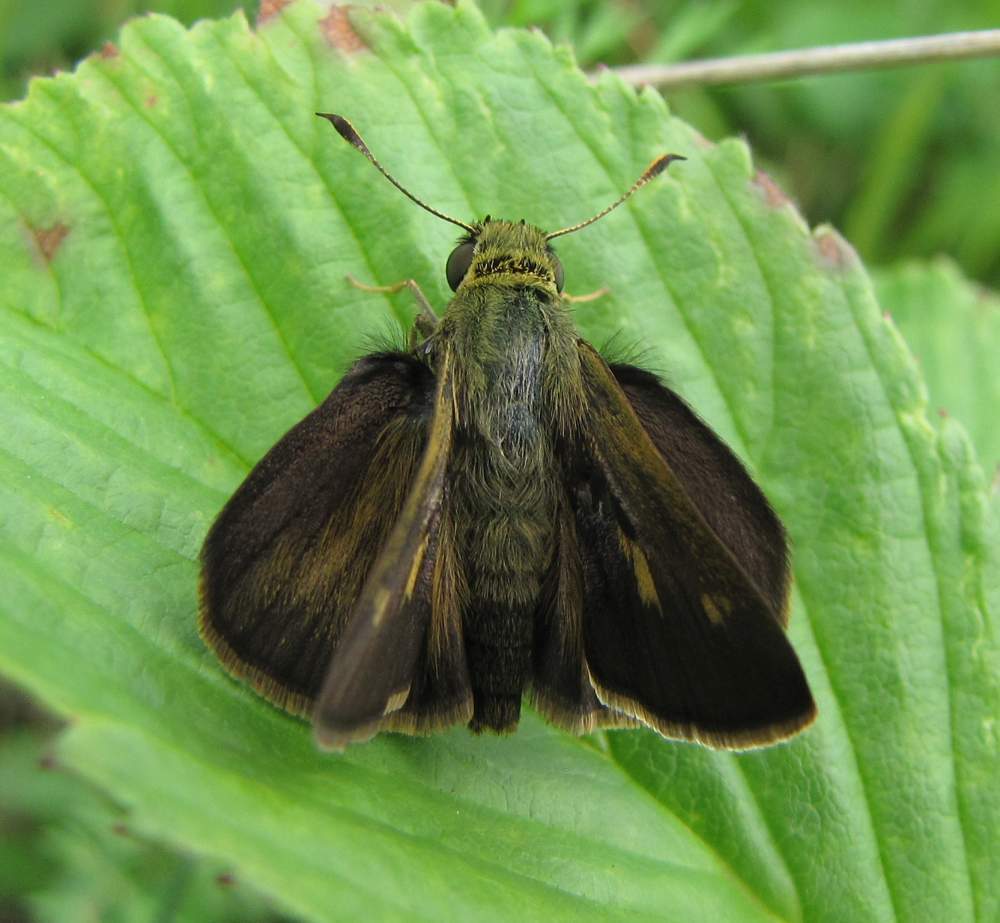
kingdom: Animalia
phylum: Arthropoda
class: Insecta
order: Lepidoptera
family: Hesperiidae
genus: Polites
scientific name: Polites egeremet
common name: Northern broken-dash
